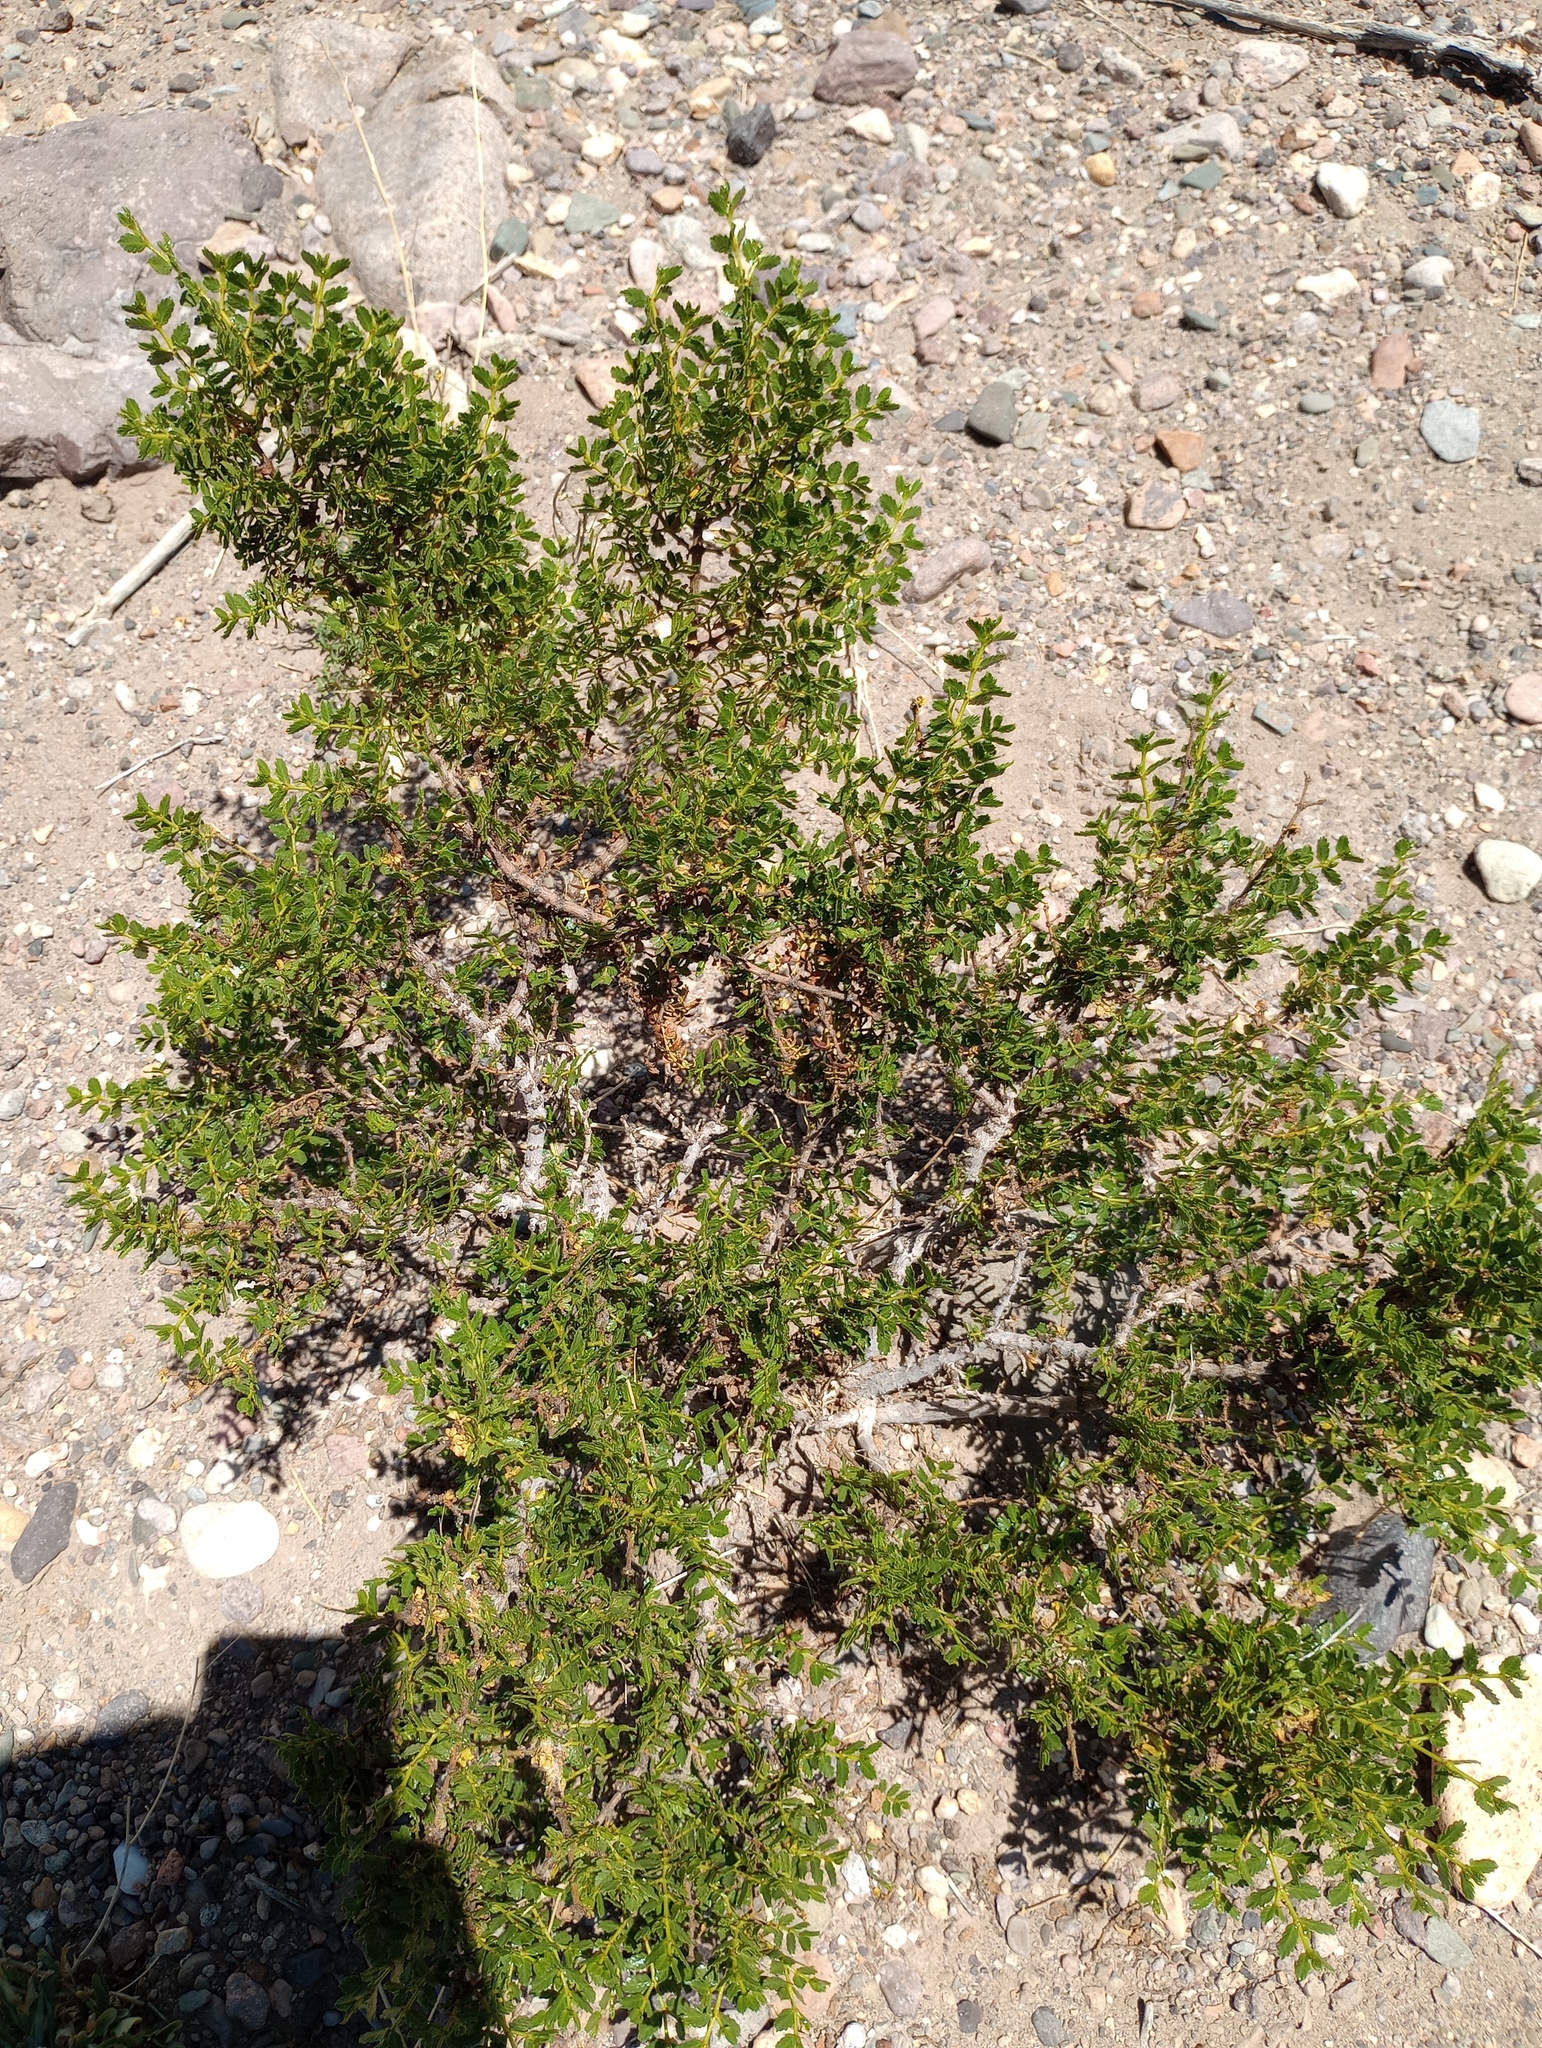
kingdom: Plantae
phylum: Tracheophyta
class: Magnoliopsida
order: Zygophyllales
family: Zygophyllaceae
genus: Larrea
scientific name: Larrea nitida
